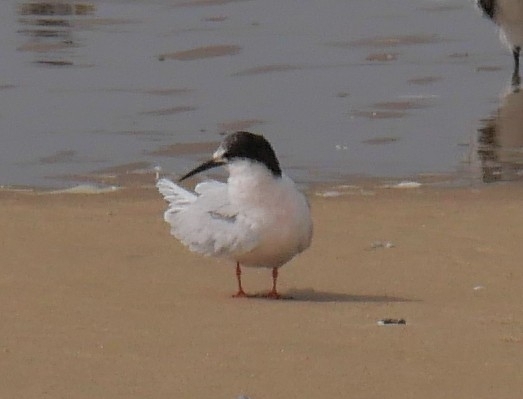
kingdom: Animalia
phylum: Chordata
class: Aves
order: Charadriiformes
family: Laridae
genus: Sterna
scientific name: Sterna dougallii
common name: Roseate tern
